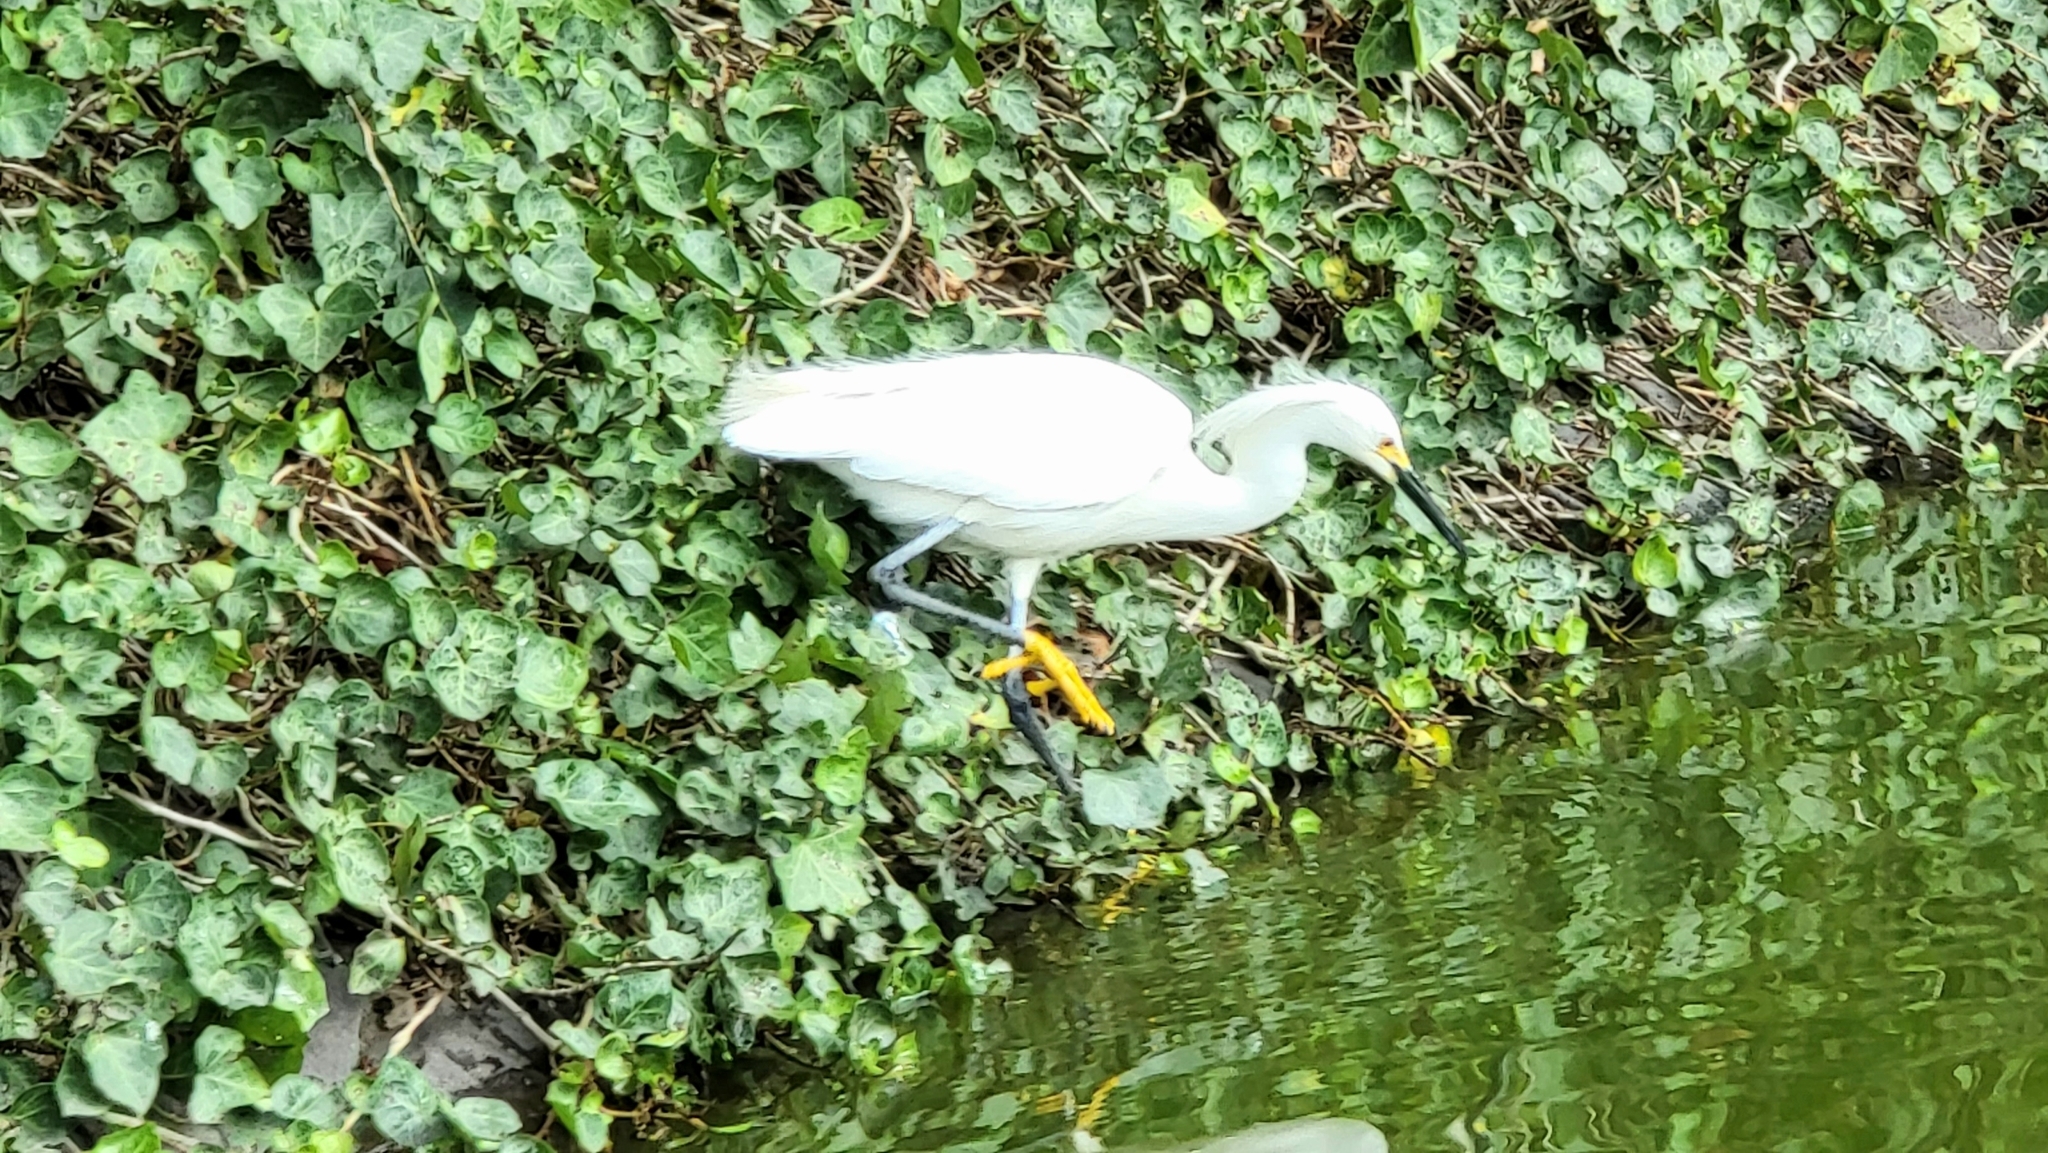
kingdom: Animalia
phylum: Chordata
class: Aves
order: Pelecaniformes
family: Ardeidae
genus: Egretta
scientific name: Egretta thula
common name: Snowy egret
